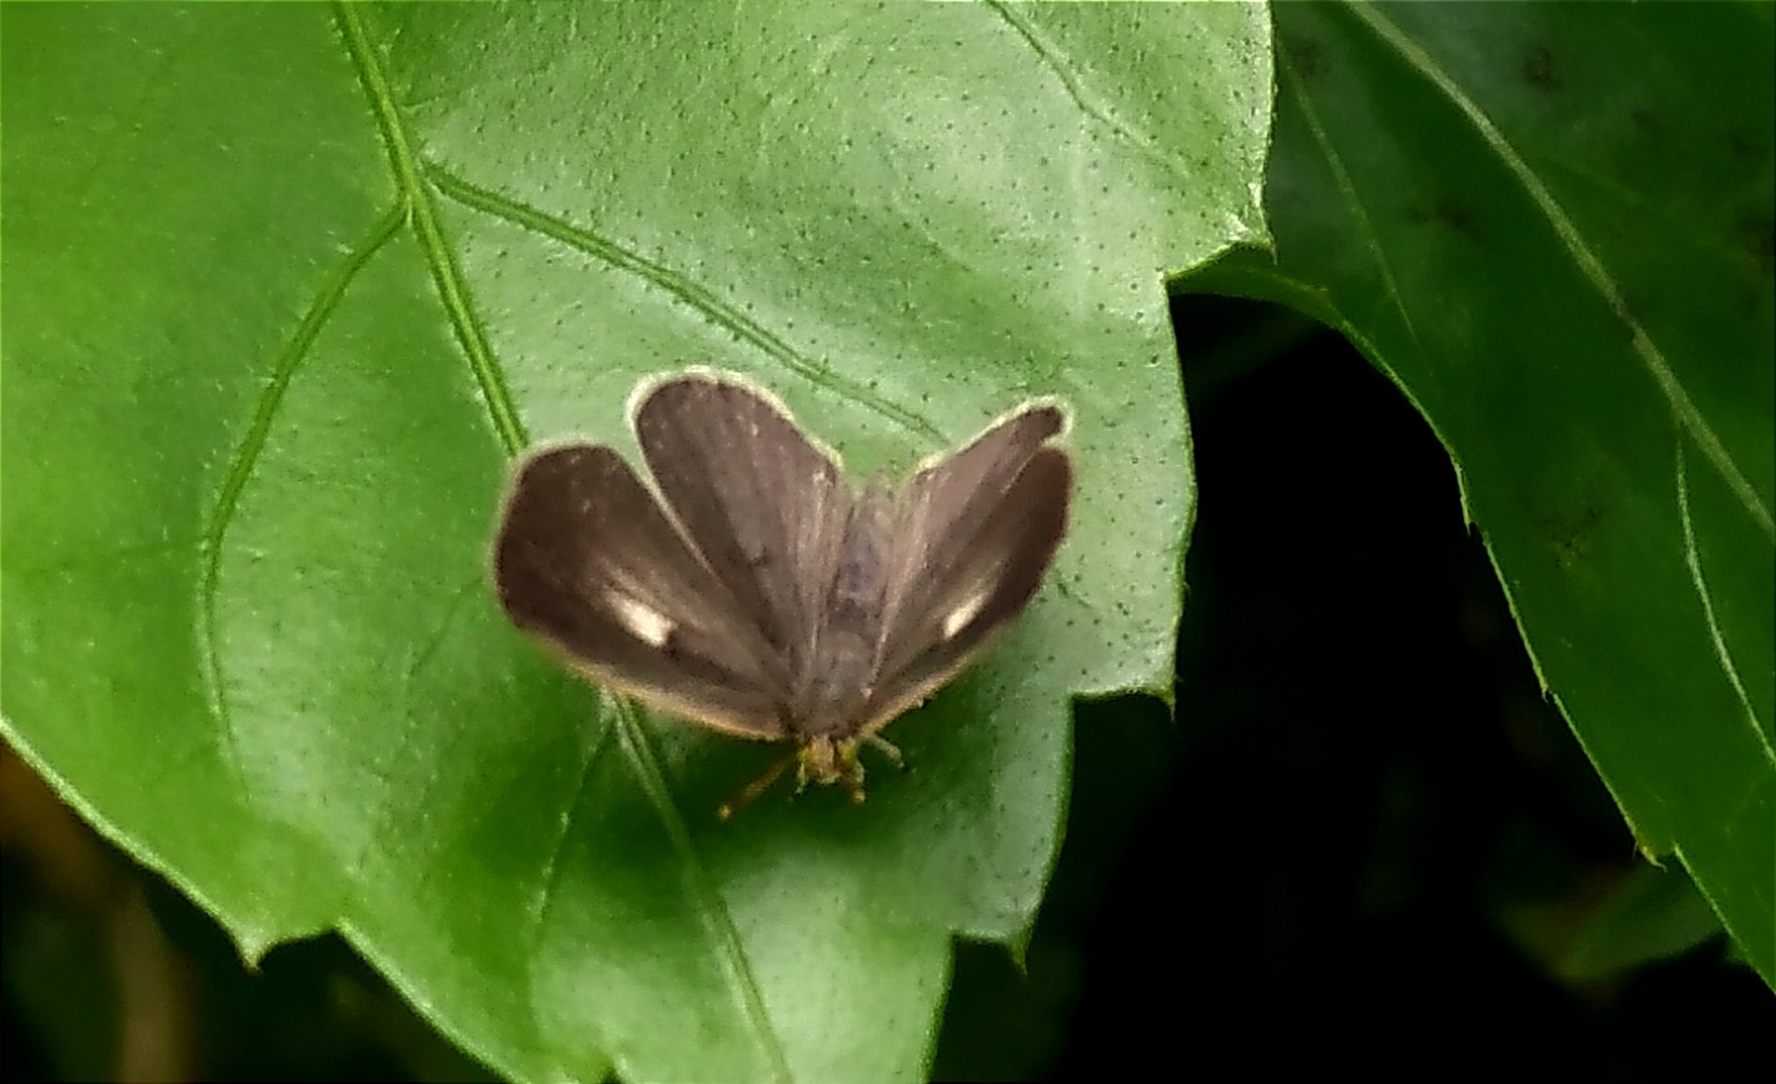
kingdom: Animalia
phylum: Arthropoda
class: Insecta
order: Lepidoptera
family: Lycaenidae
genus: Spalgis
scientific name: Spalgis epius
